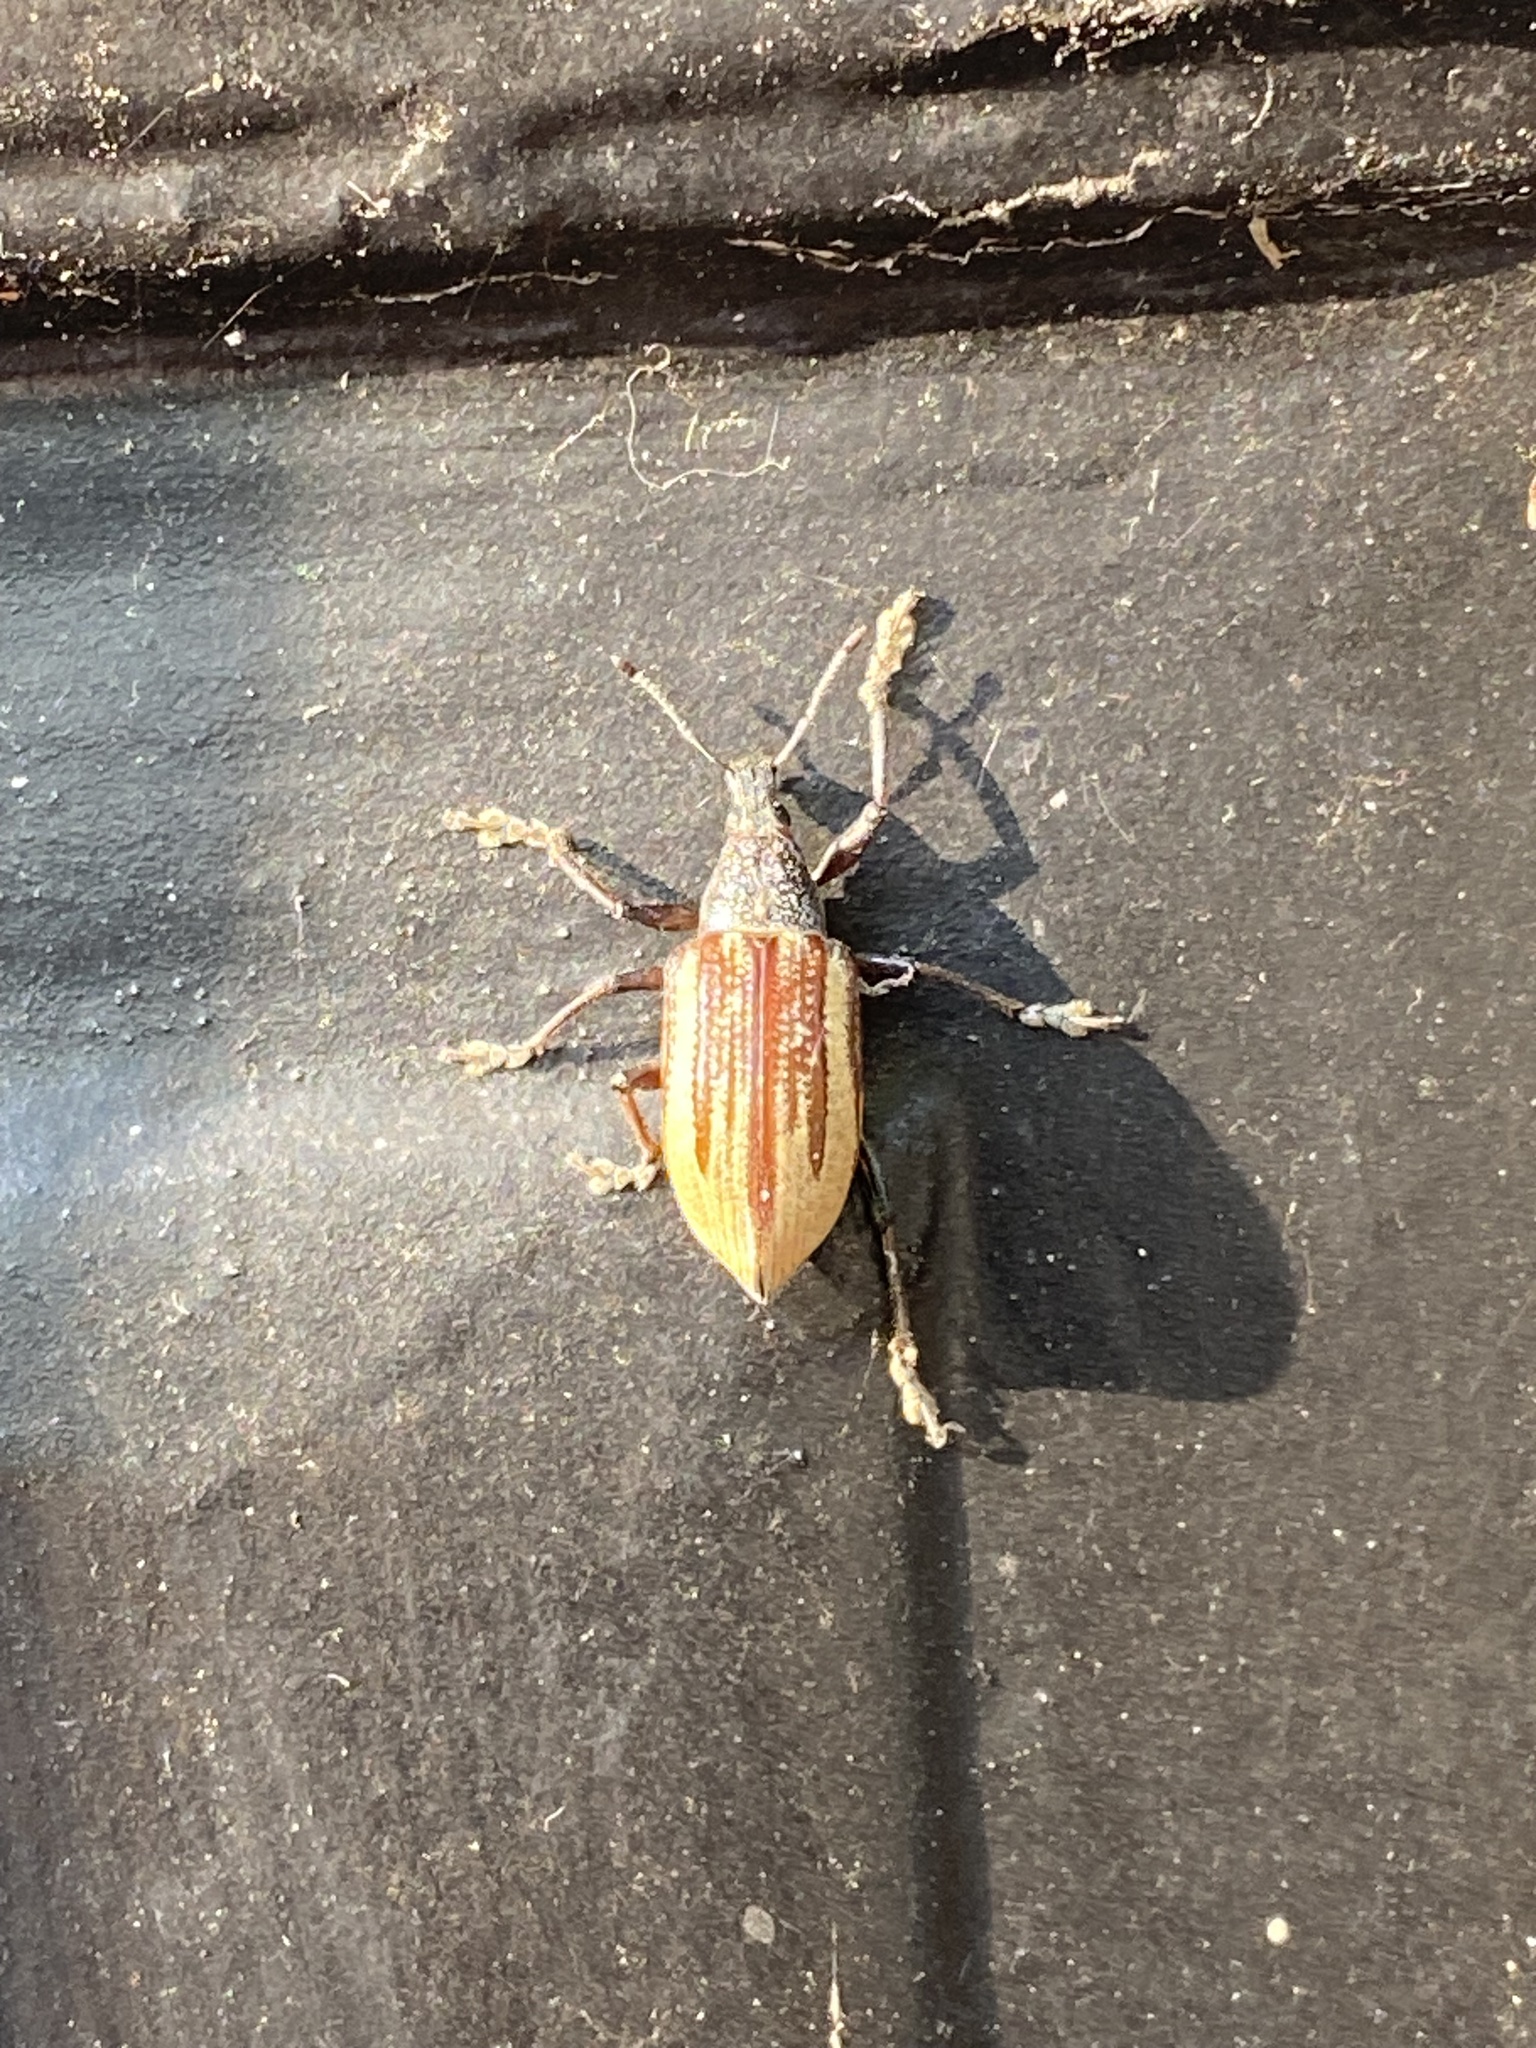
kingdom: Animalia
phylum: Arthropoda
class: Insecta
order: Coleoptera
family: Curculionidae
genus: Diaprepes
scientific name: Diaprepes abbreviatus
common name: Root weevil
